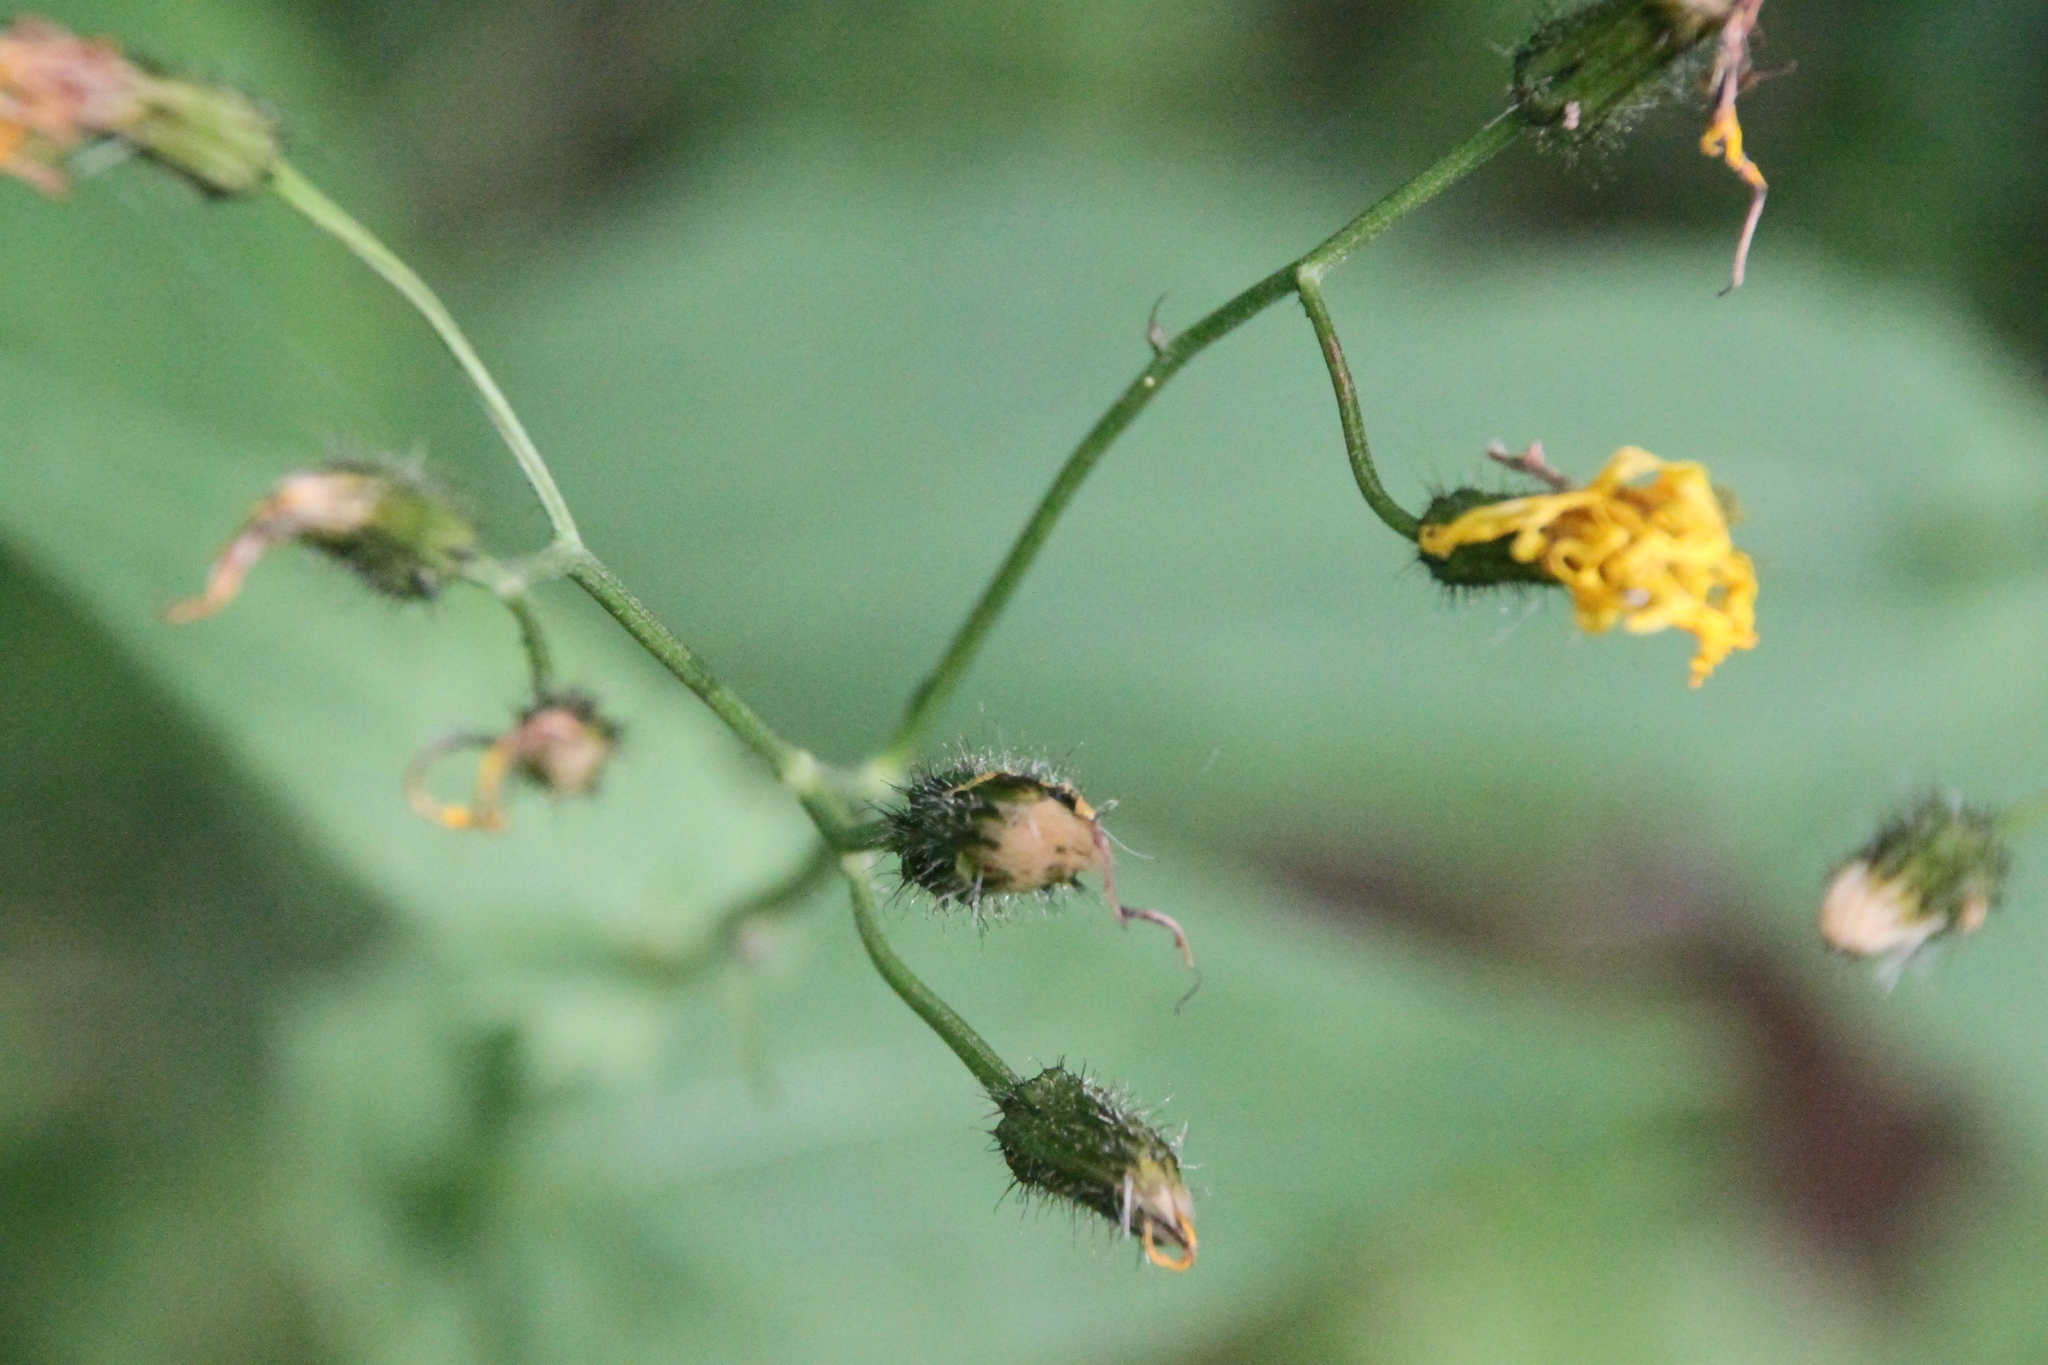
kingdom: Plantae
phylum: Tracheophyta
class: Magnoliopsida
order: Asterales
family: Asteraceae
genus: Crepis
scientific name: Crepis paludosa
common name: Marsh hawk's-beard
